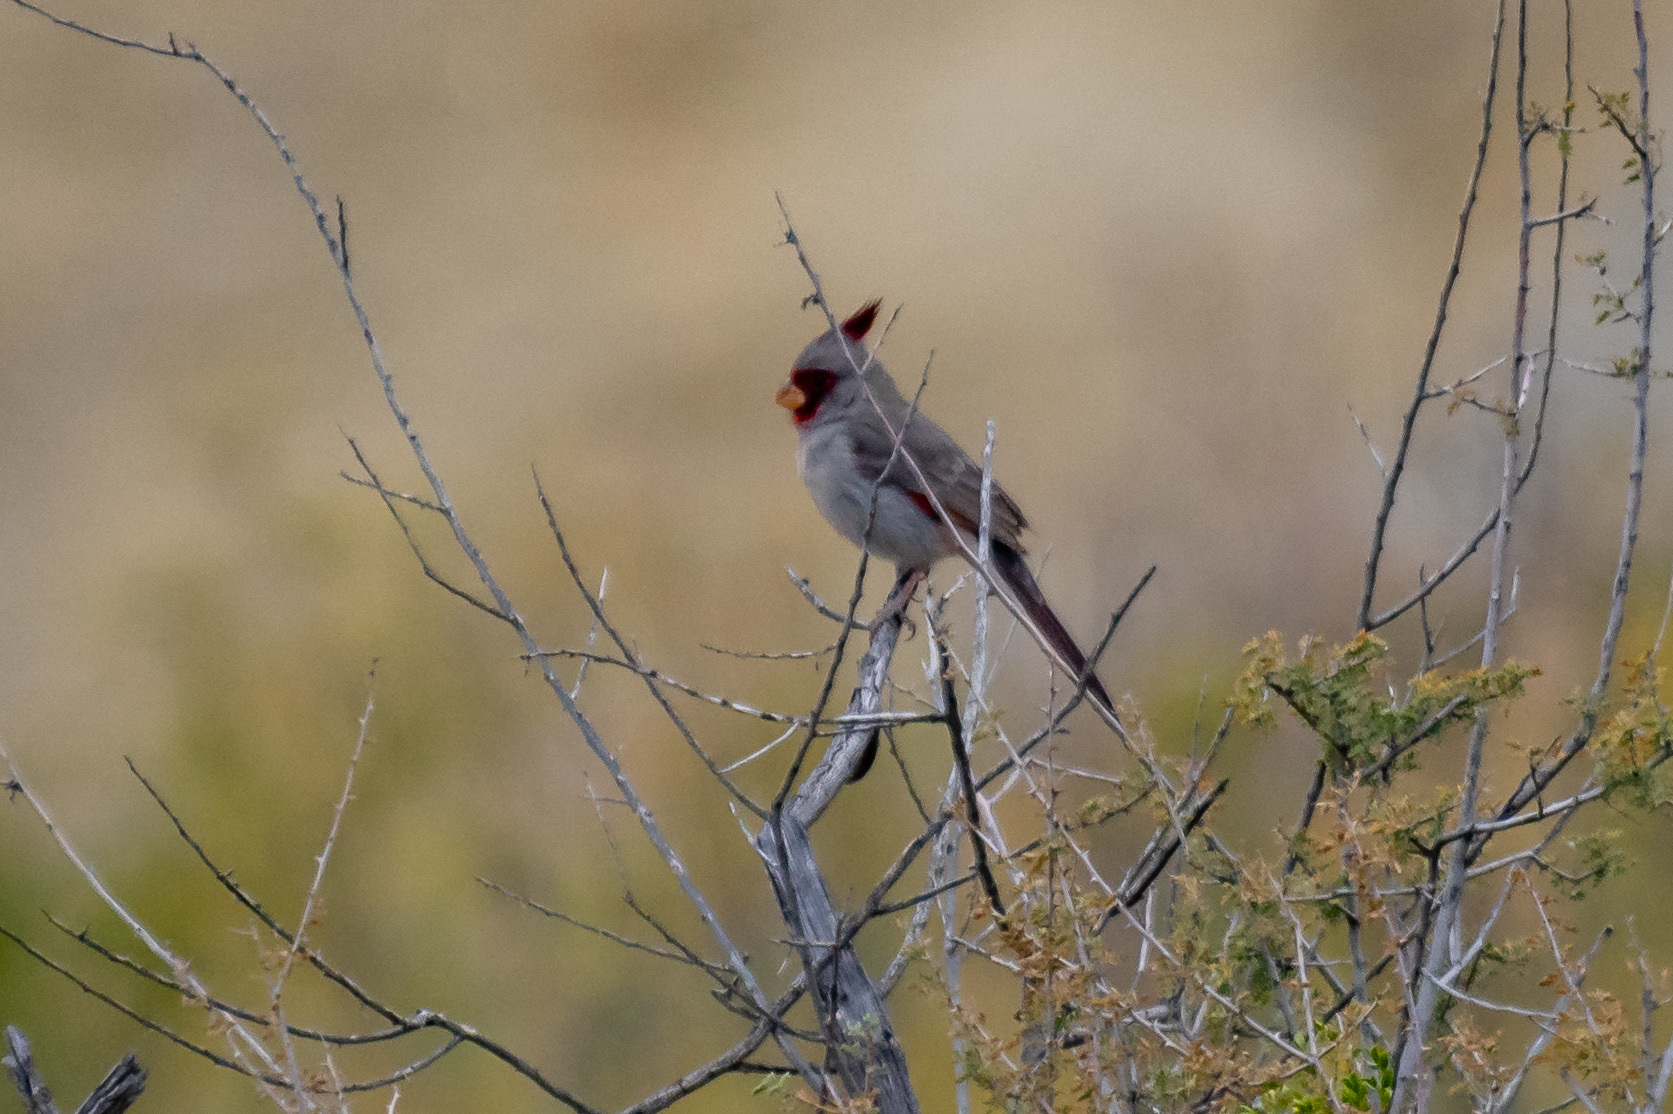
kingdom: Animalia
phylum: Chordata
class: Aves
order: Passeriformes
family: Cardinalidae
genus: Cardinalis
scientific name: Cardinalis sinuatus
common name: Pyrrhuloxia
